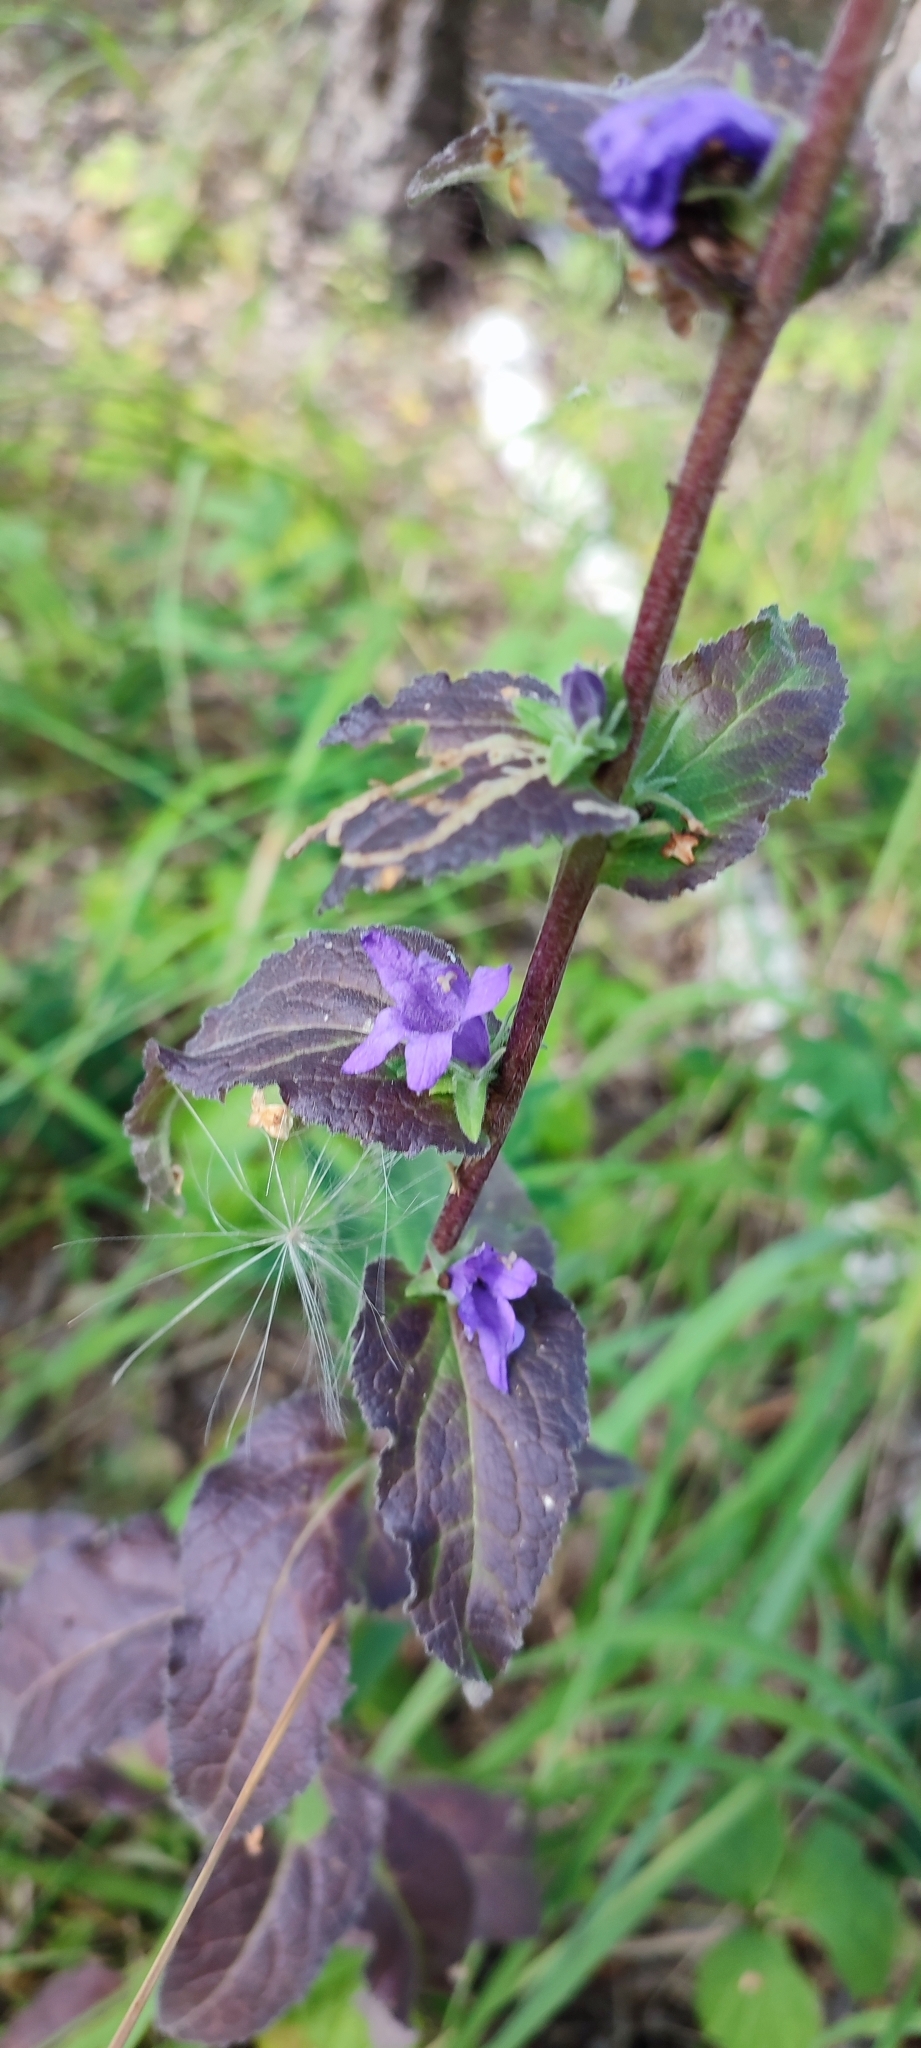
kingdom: Plantae
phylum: Tracheophyta
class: Magnoliopsida
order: Asterales
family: Campanulaceae
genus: Campanula
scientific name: Campanula glomerata
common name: Clustered bellflower
